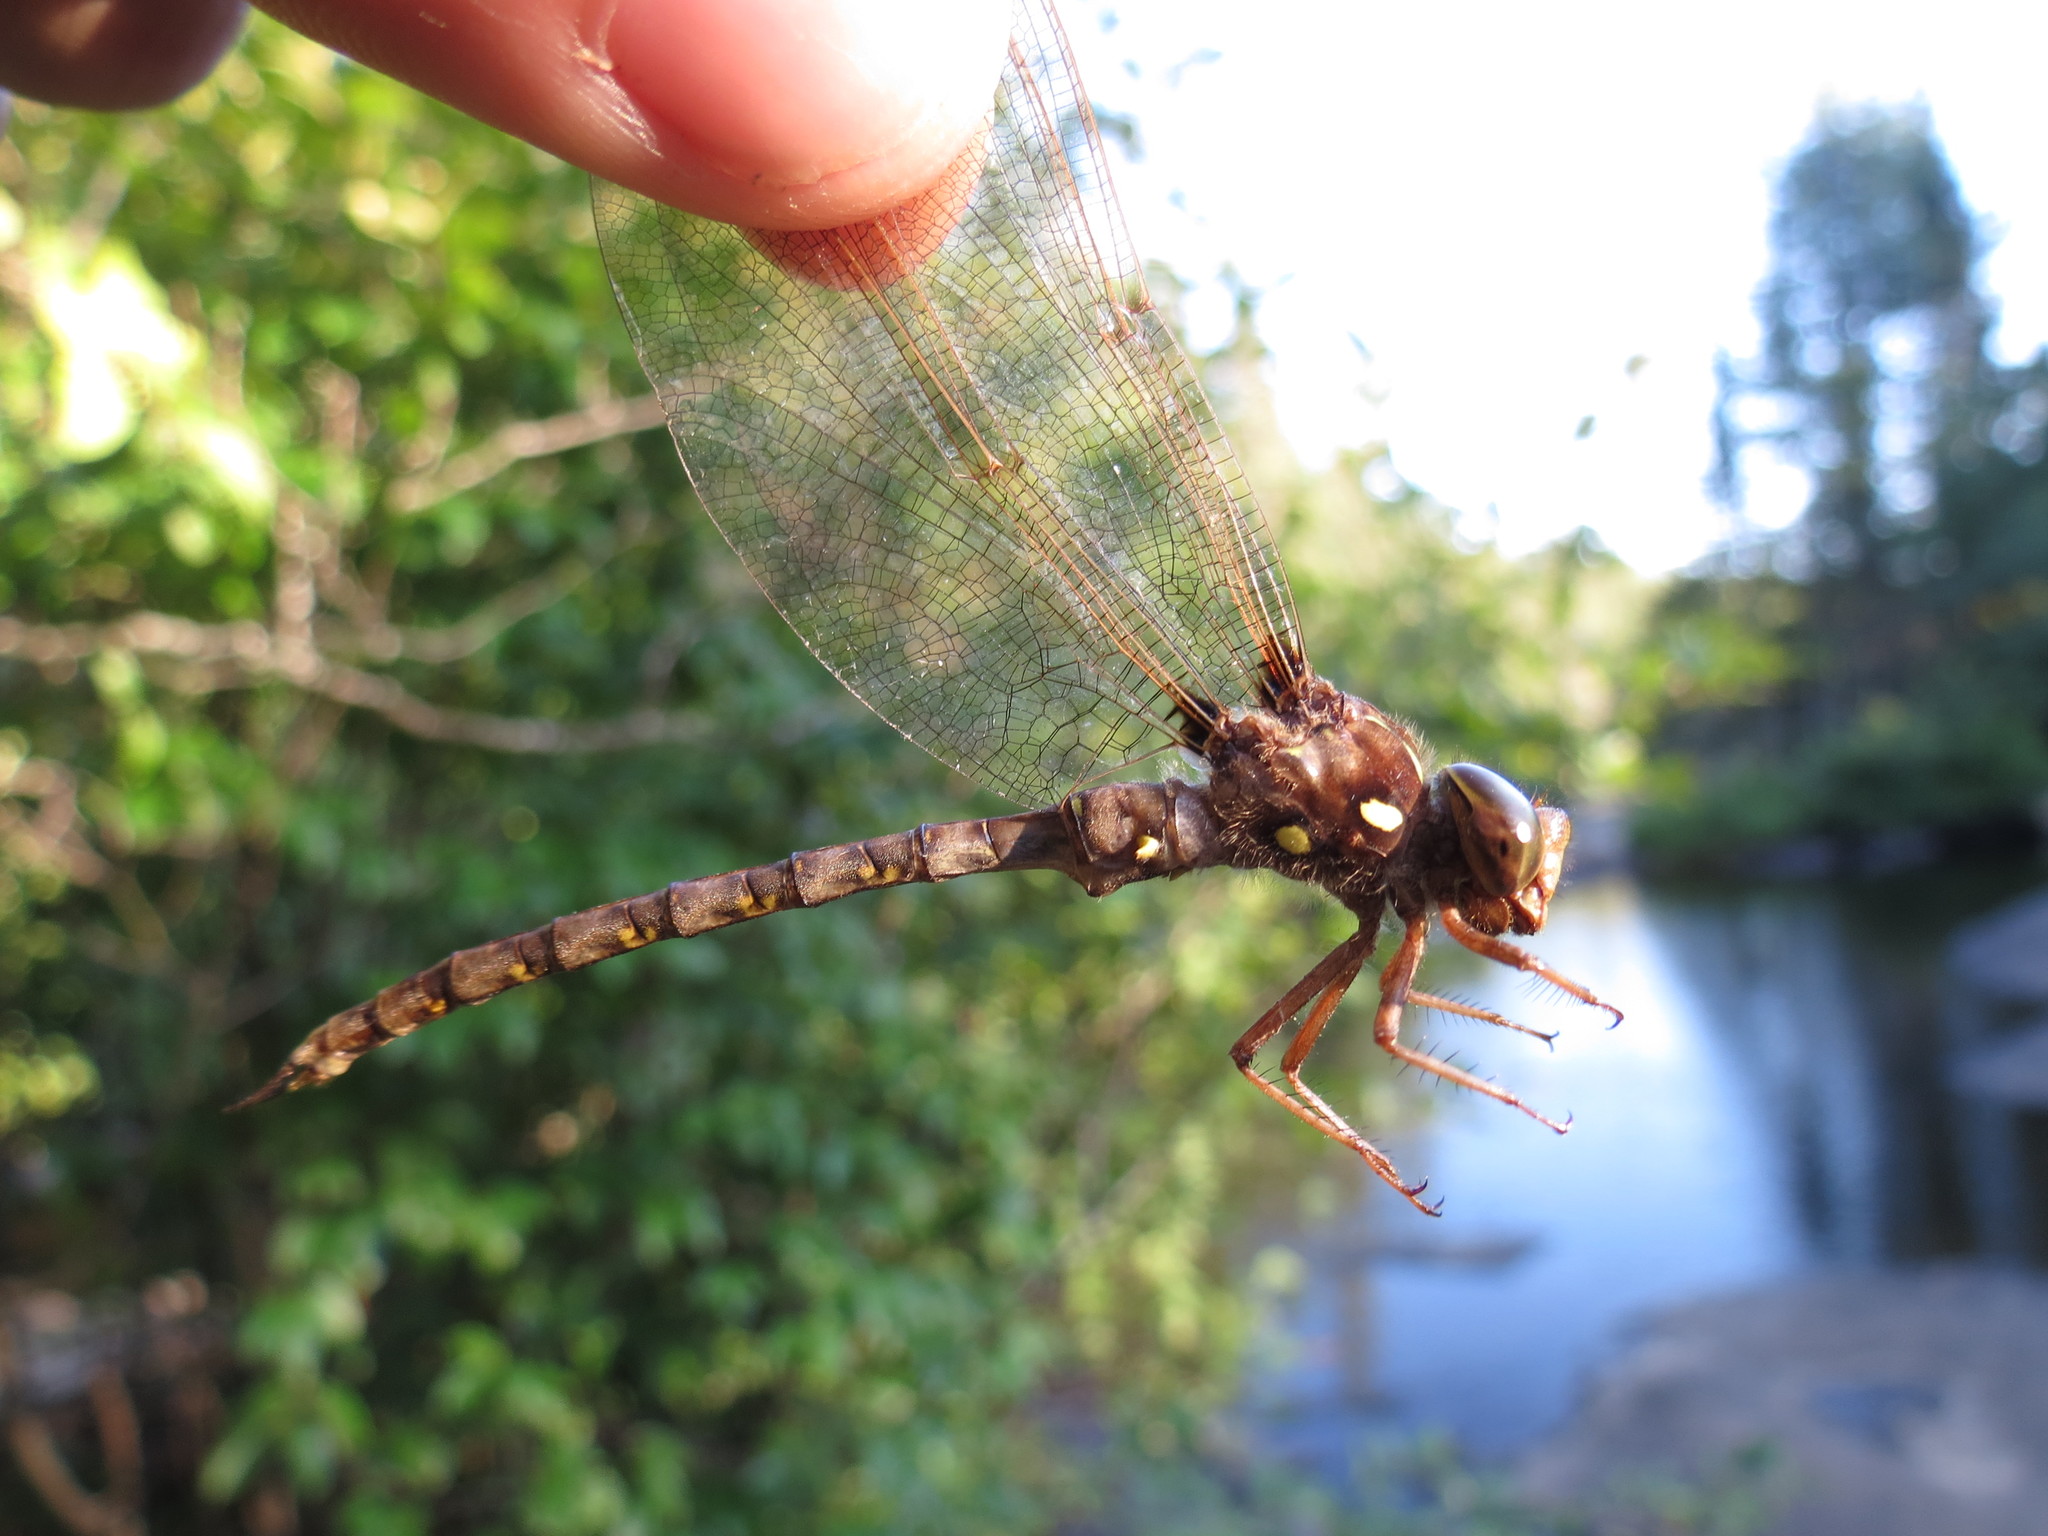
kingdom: Animalia
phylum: Arthropoda
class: Insecta
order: Odonata
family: Aeshnidae
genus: Boyeria
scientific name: Boyeria vinosa
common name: Fawn darner
